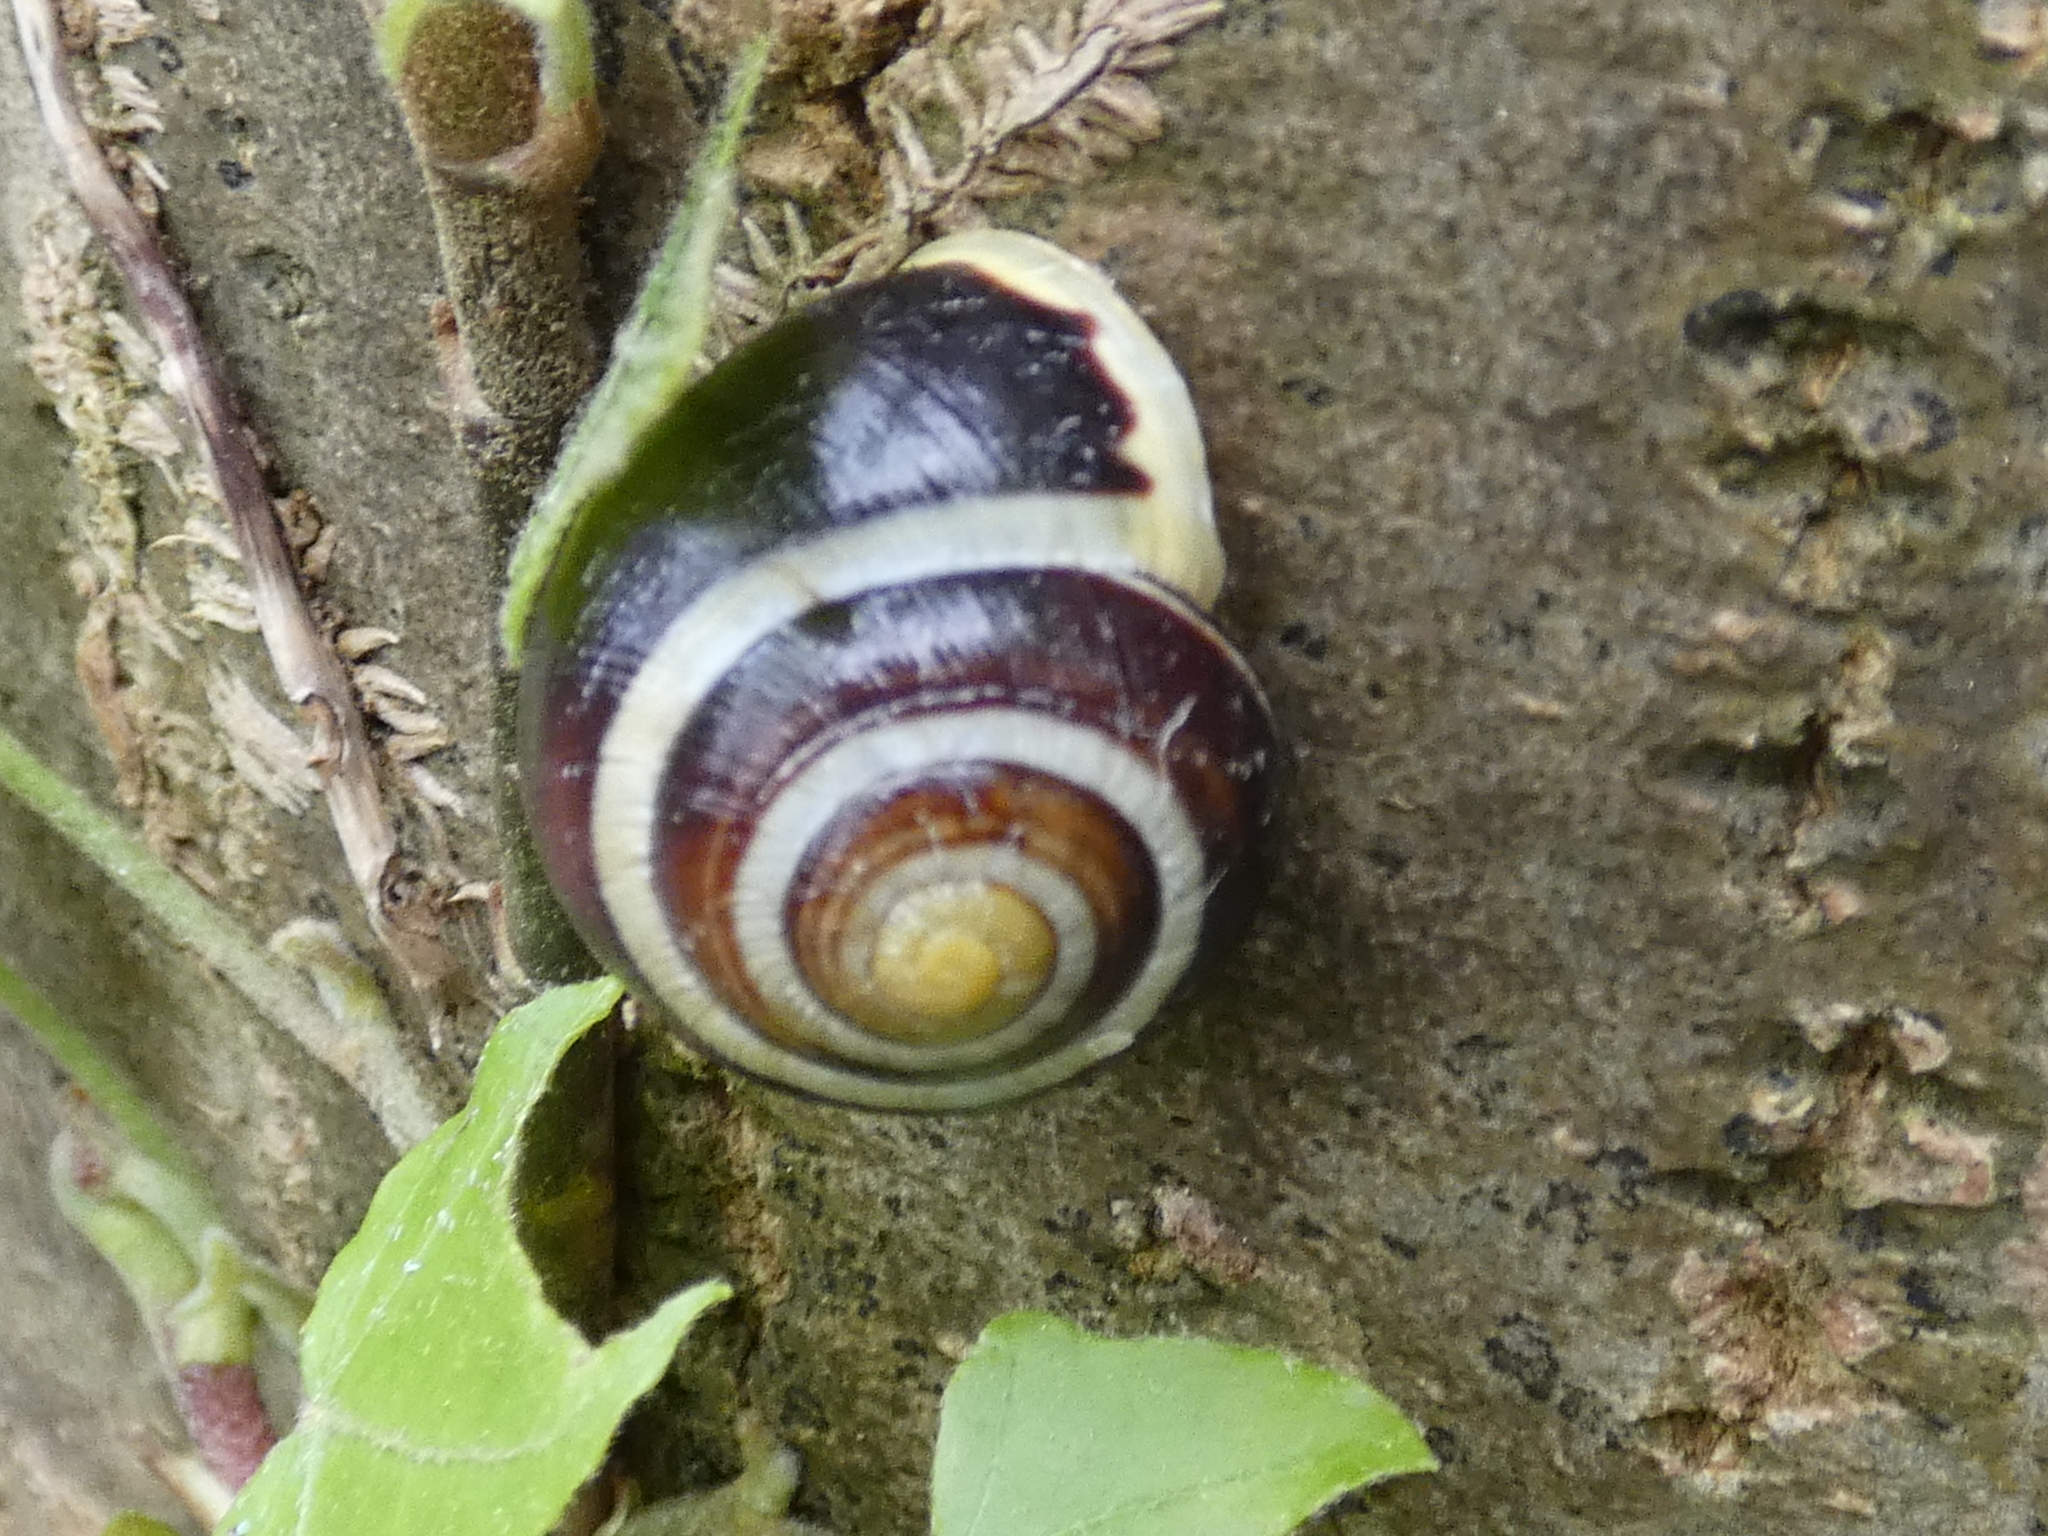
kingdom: Animalia
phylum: Mollusca
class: Gastropoda
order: Stylommatophora
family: Helicidae
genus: Cepaea
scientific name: Cepaea hortensis
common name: White-lip gardensnail
